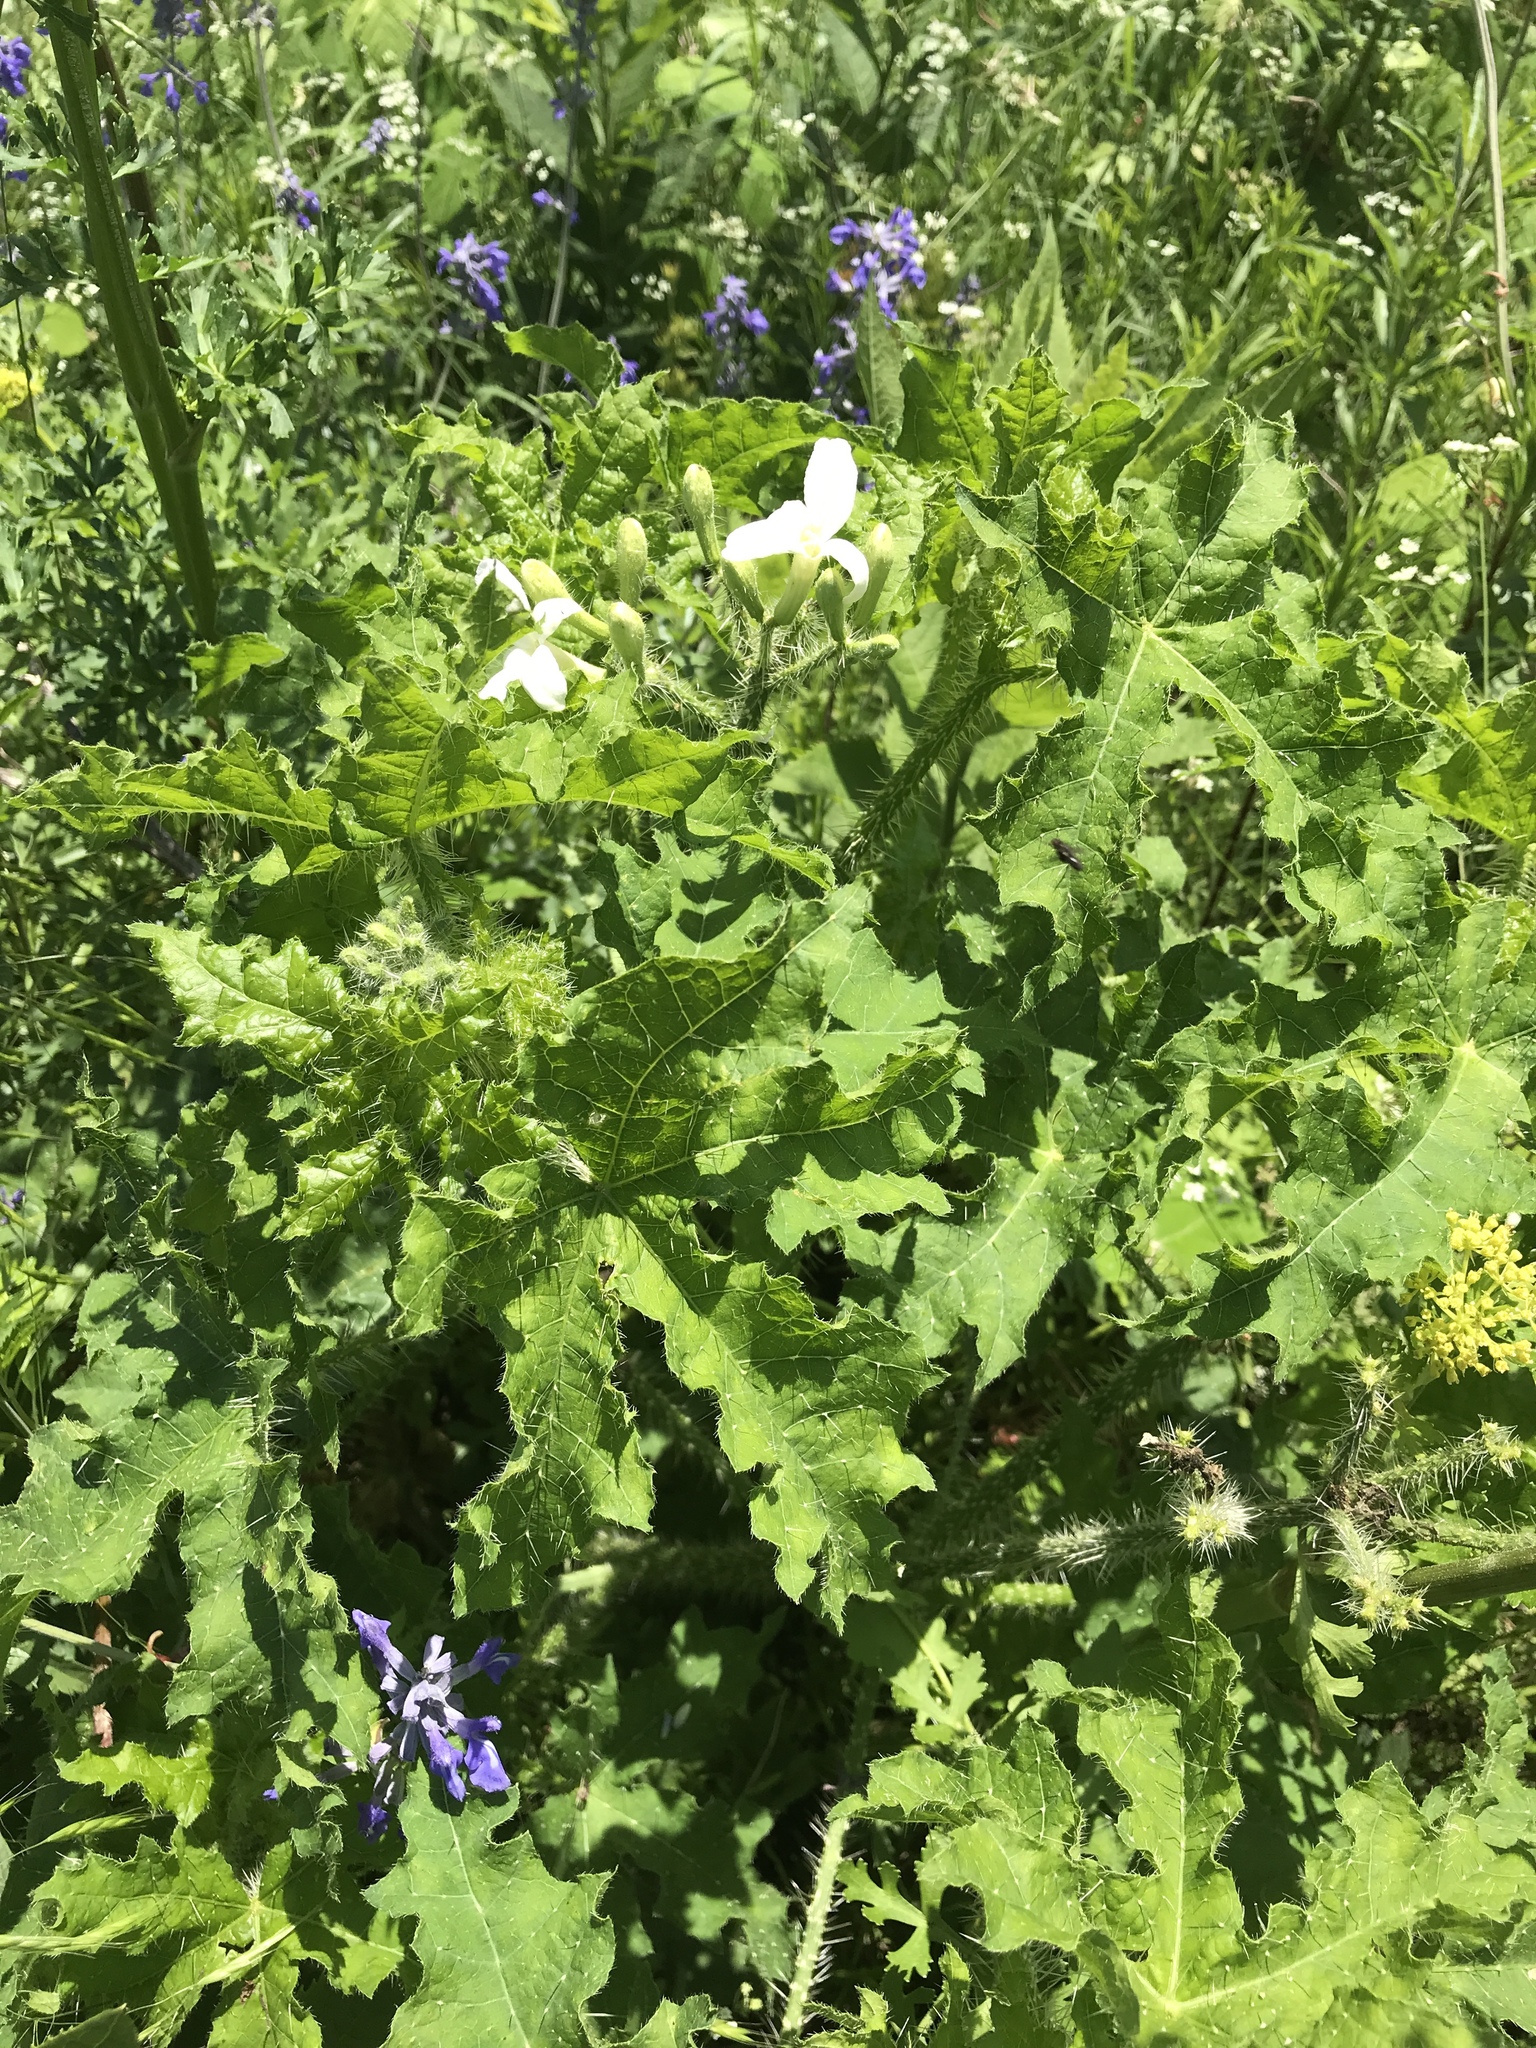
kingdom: Plantae
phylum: Tracheophyta
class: Magnoliopsida
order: Malpighiales
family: Euphorbiaceae
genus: Cnidoscolus
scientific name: Cnidoscolus texanus
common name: Texas bull-nettle
